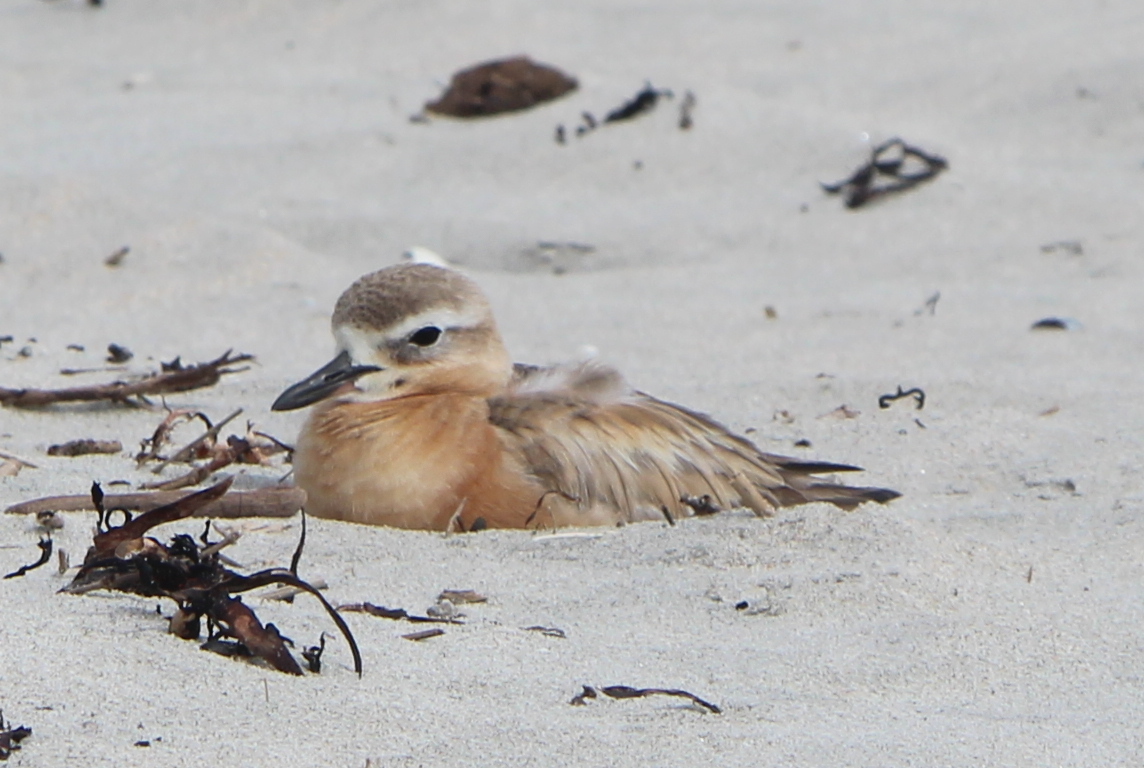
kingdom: Animalia
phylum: Chordata
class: Aves
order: Charadriiformes
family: Charadriidae
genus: Anarhynchus
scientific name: Anarhynchus
